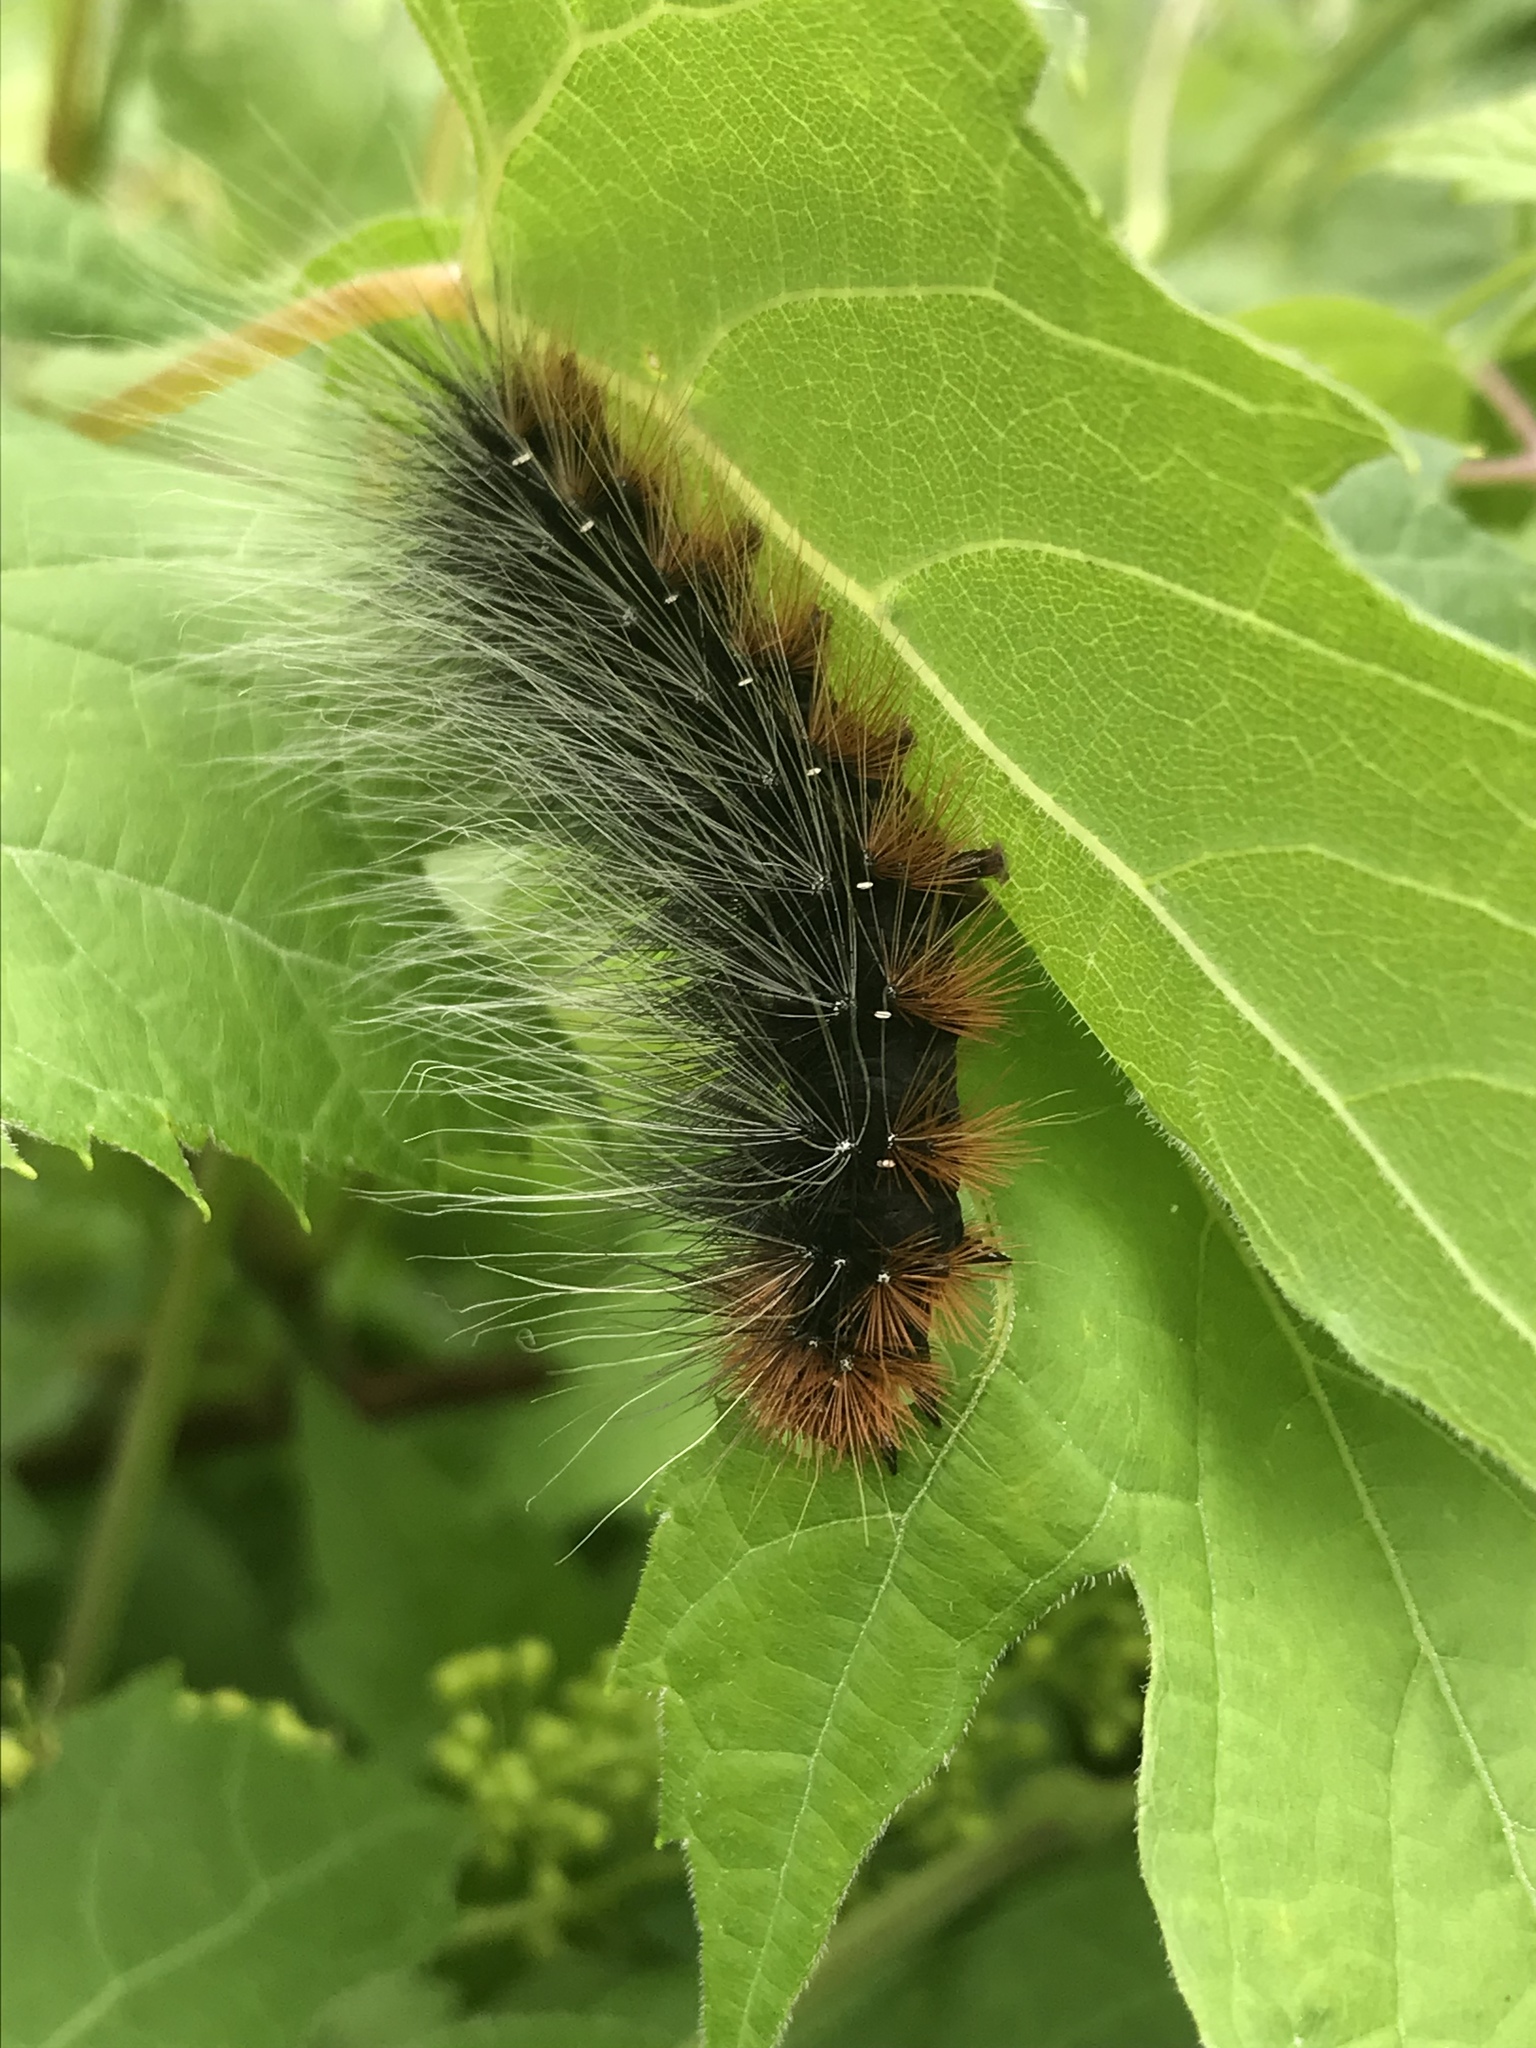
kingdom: Animalia
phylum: Arthropoda
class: Insecta
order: Lepidoptera
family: Erebidae
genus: Arctia
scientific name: Arctia caja
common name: Garden tiger
